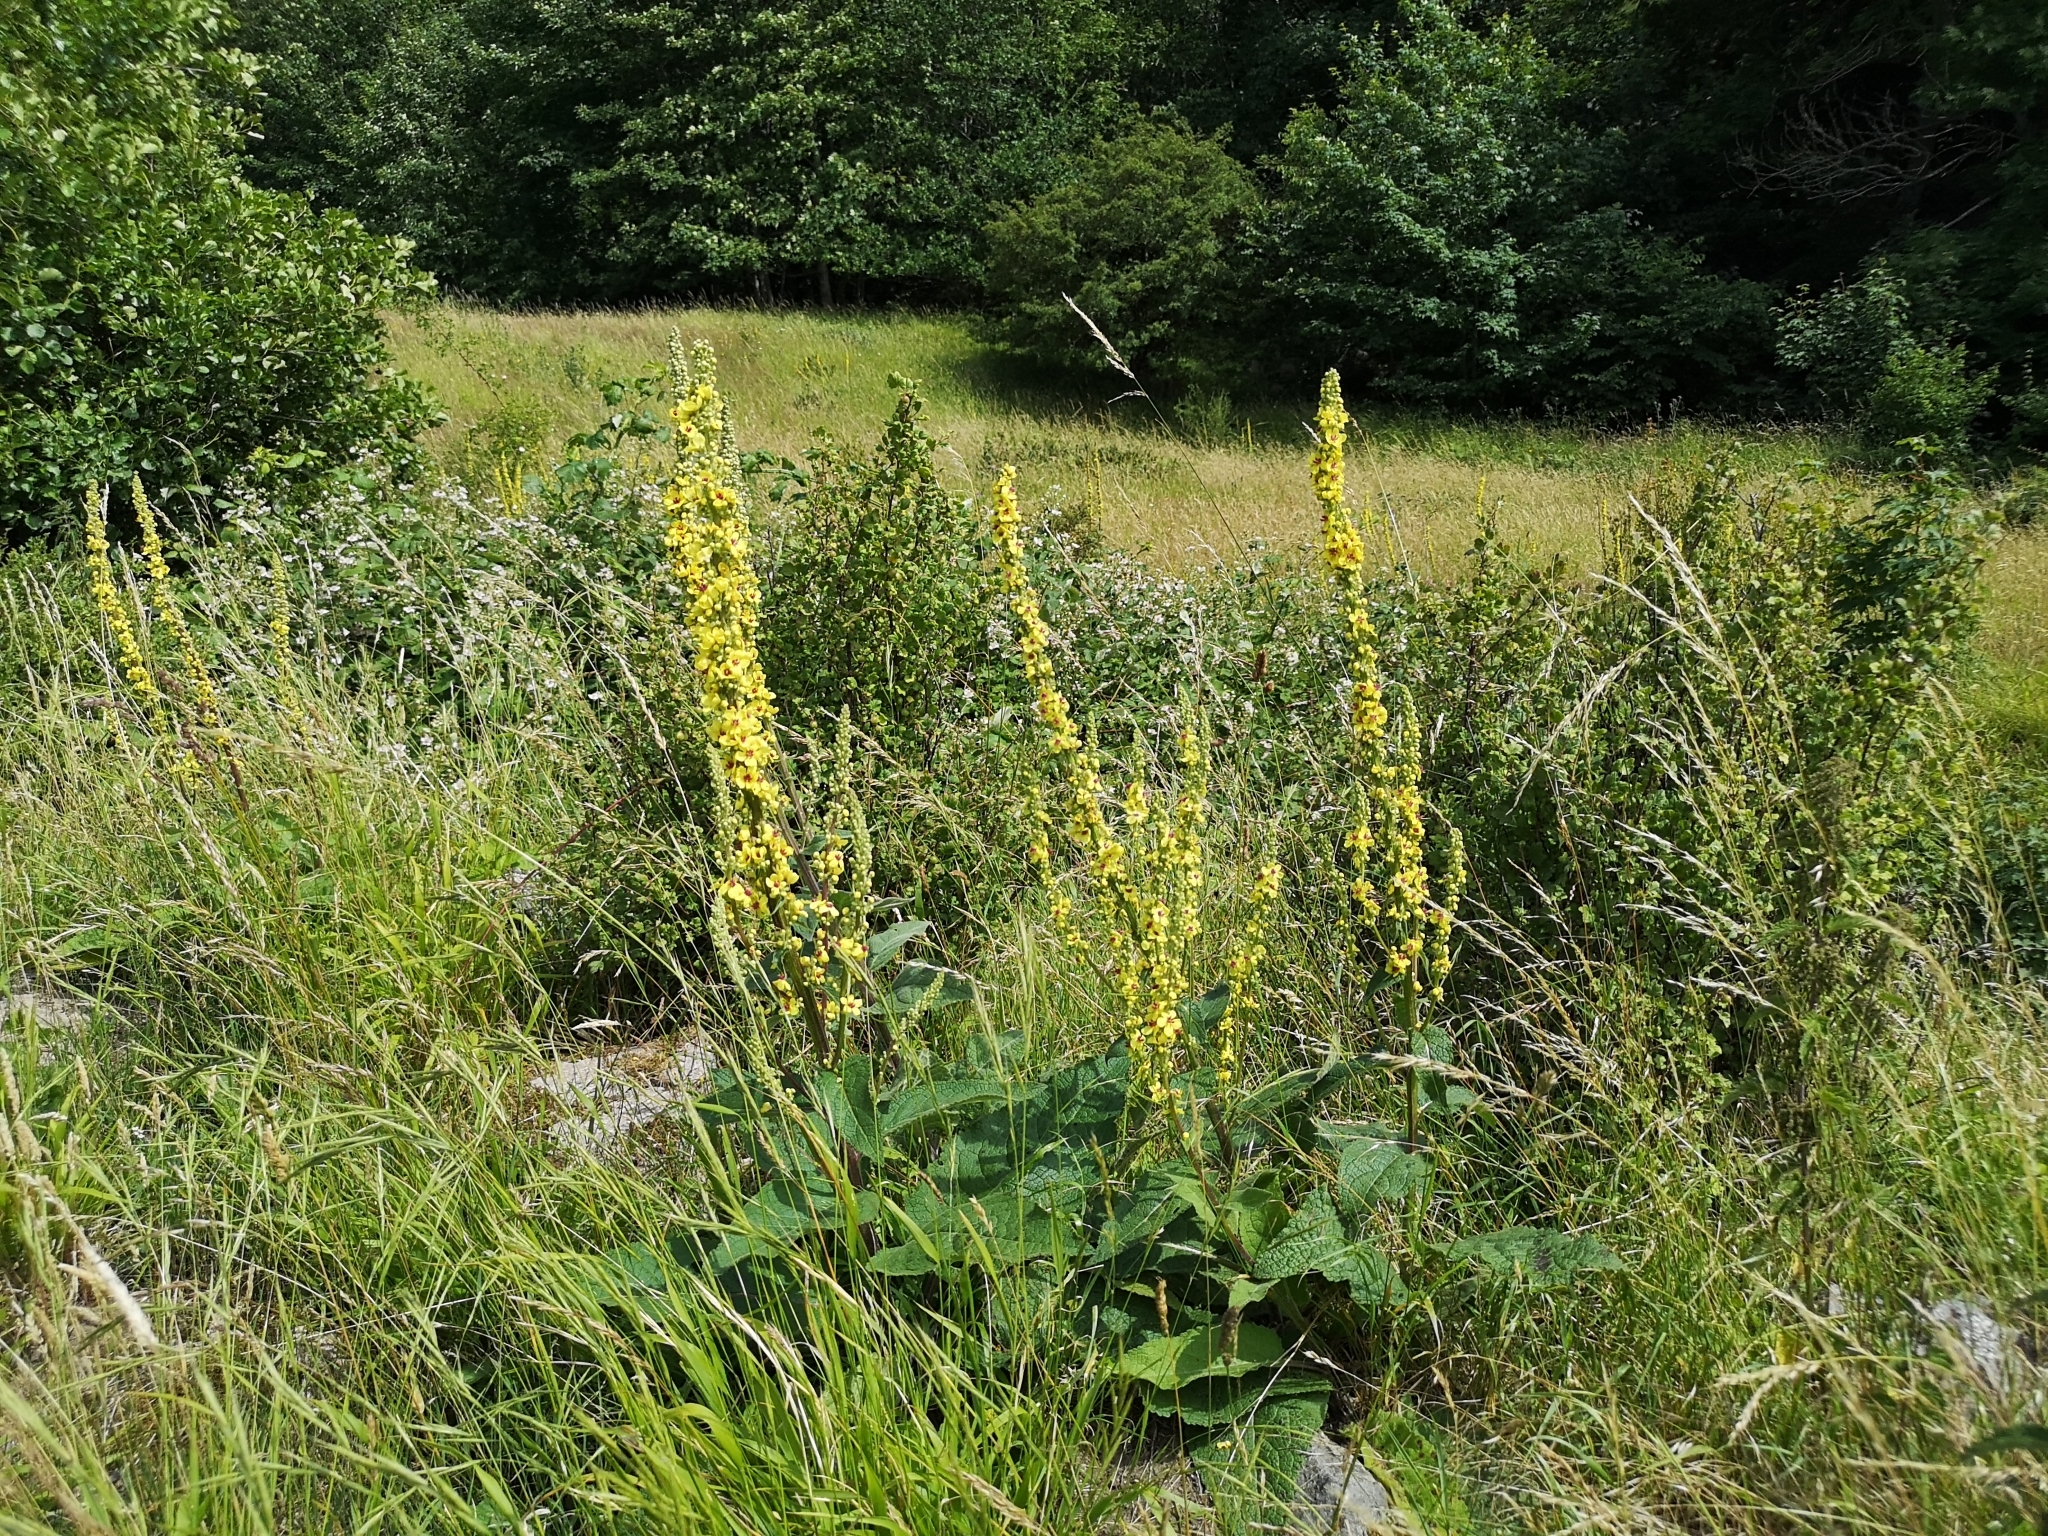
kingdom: Plantae
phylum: Tracheophyta
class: Magnoliopsida
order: Lamiales
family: Scrophulariaceae
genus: Verbascum
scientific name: Verbascum nigrum
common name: Dark mullein
